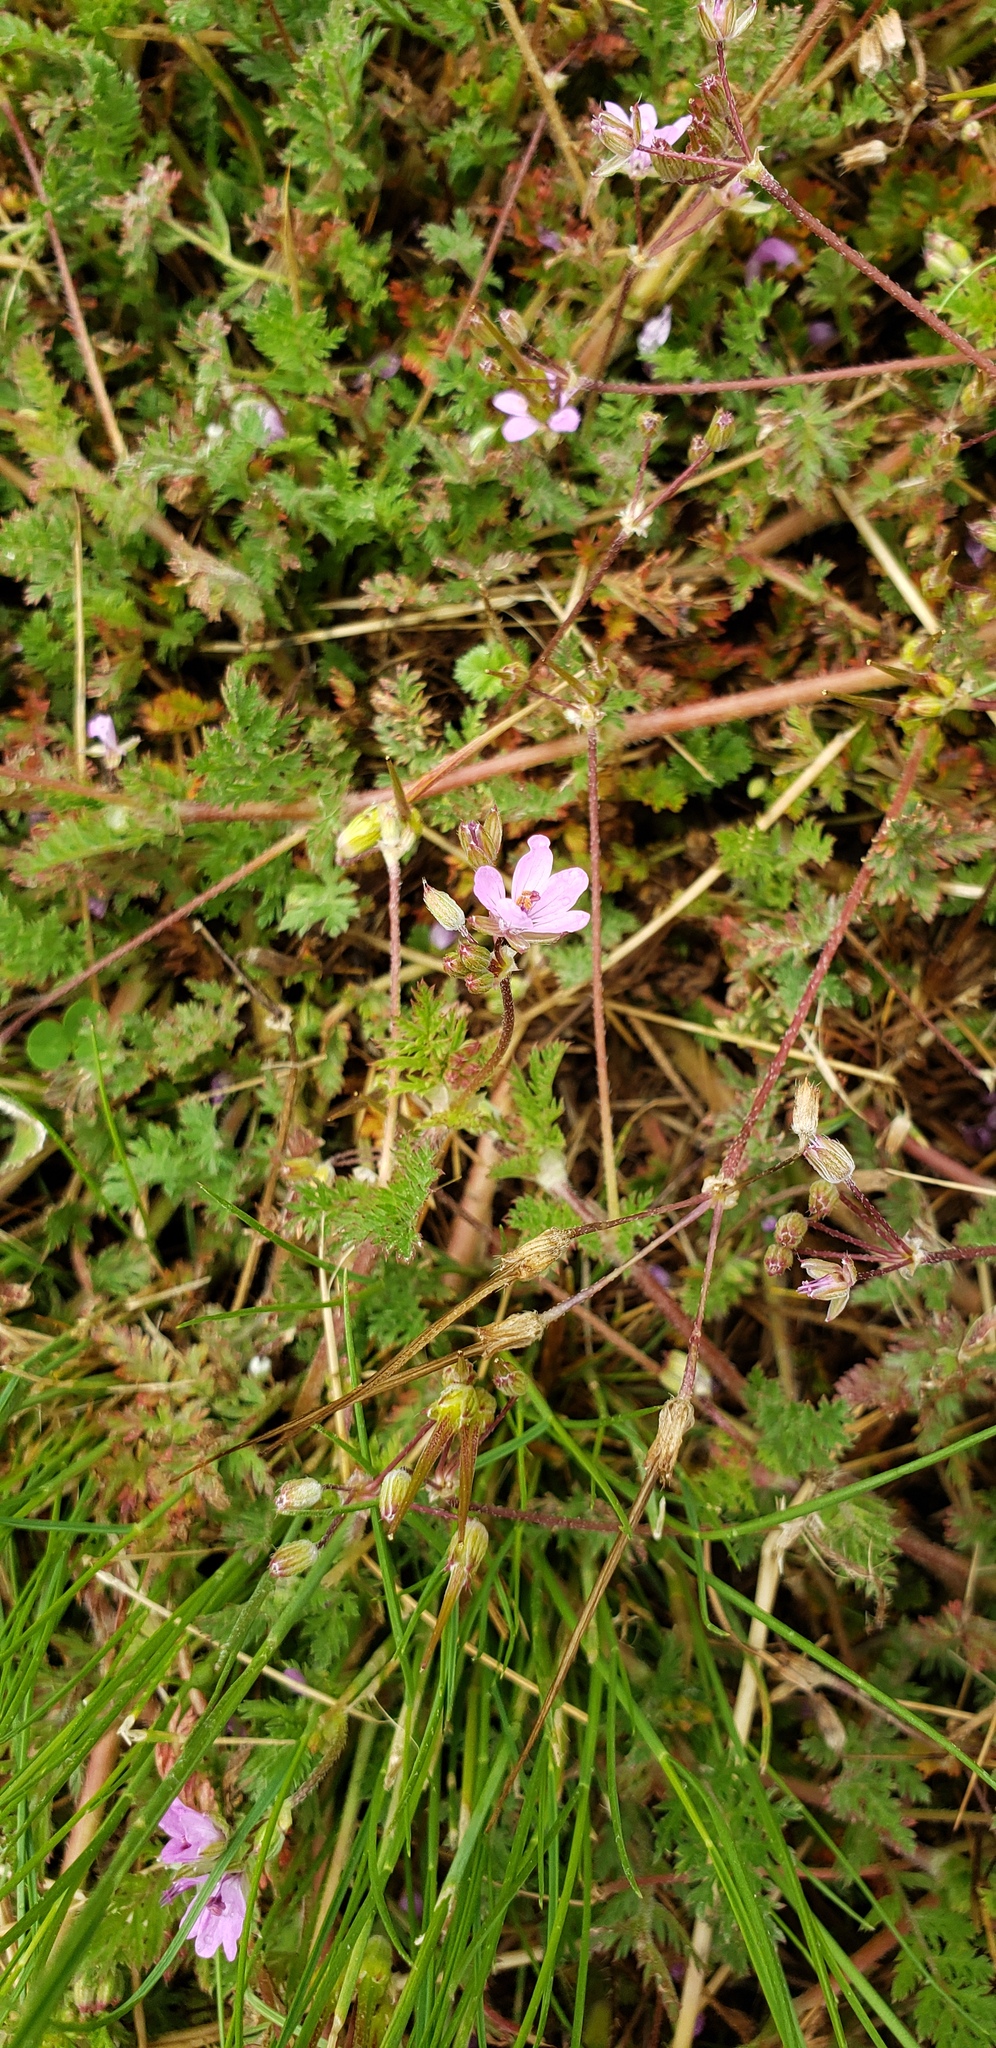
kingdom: Plantae
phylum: Tracheophyta
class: Magnoliopsida
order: Geraniales
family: Geraniaceae
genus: Erodium
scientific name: Erodium cicutarium
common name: Common stork's-bill
